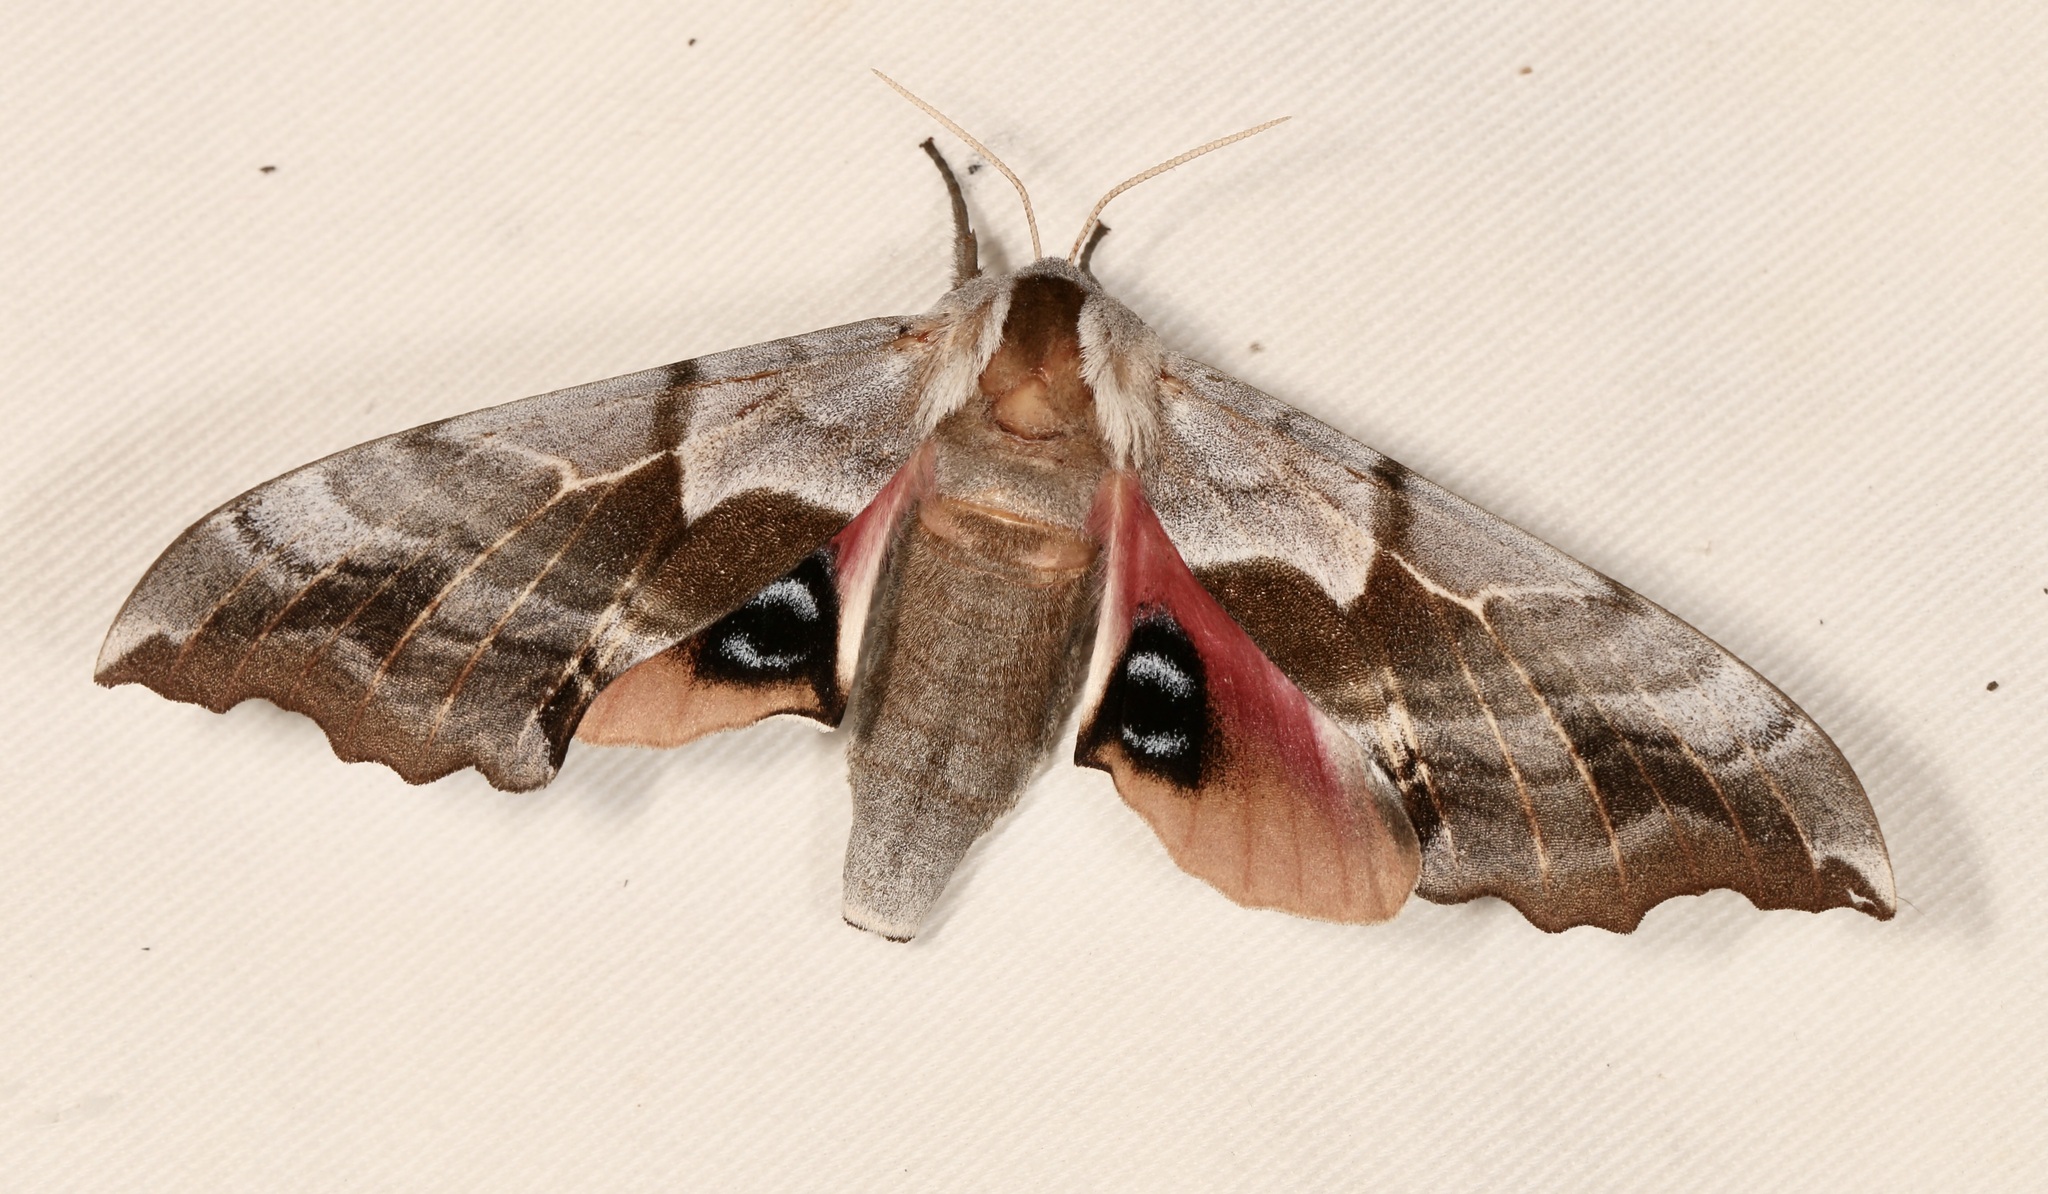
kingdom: Animalia
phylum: Arthropoda
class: Insecta
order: Lepidoptera
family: Sphingidae
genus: Smerinthus
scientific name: Smerinthus cerisyi
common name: Cerisy's sphinx moth
